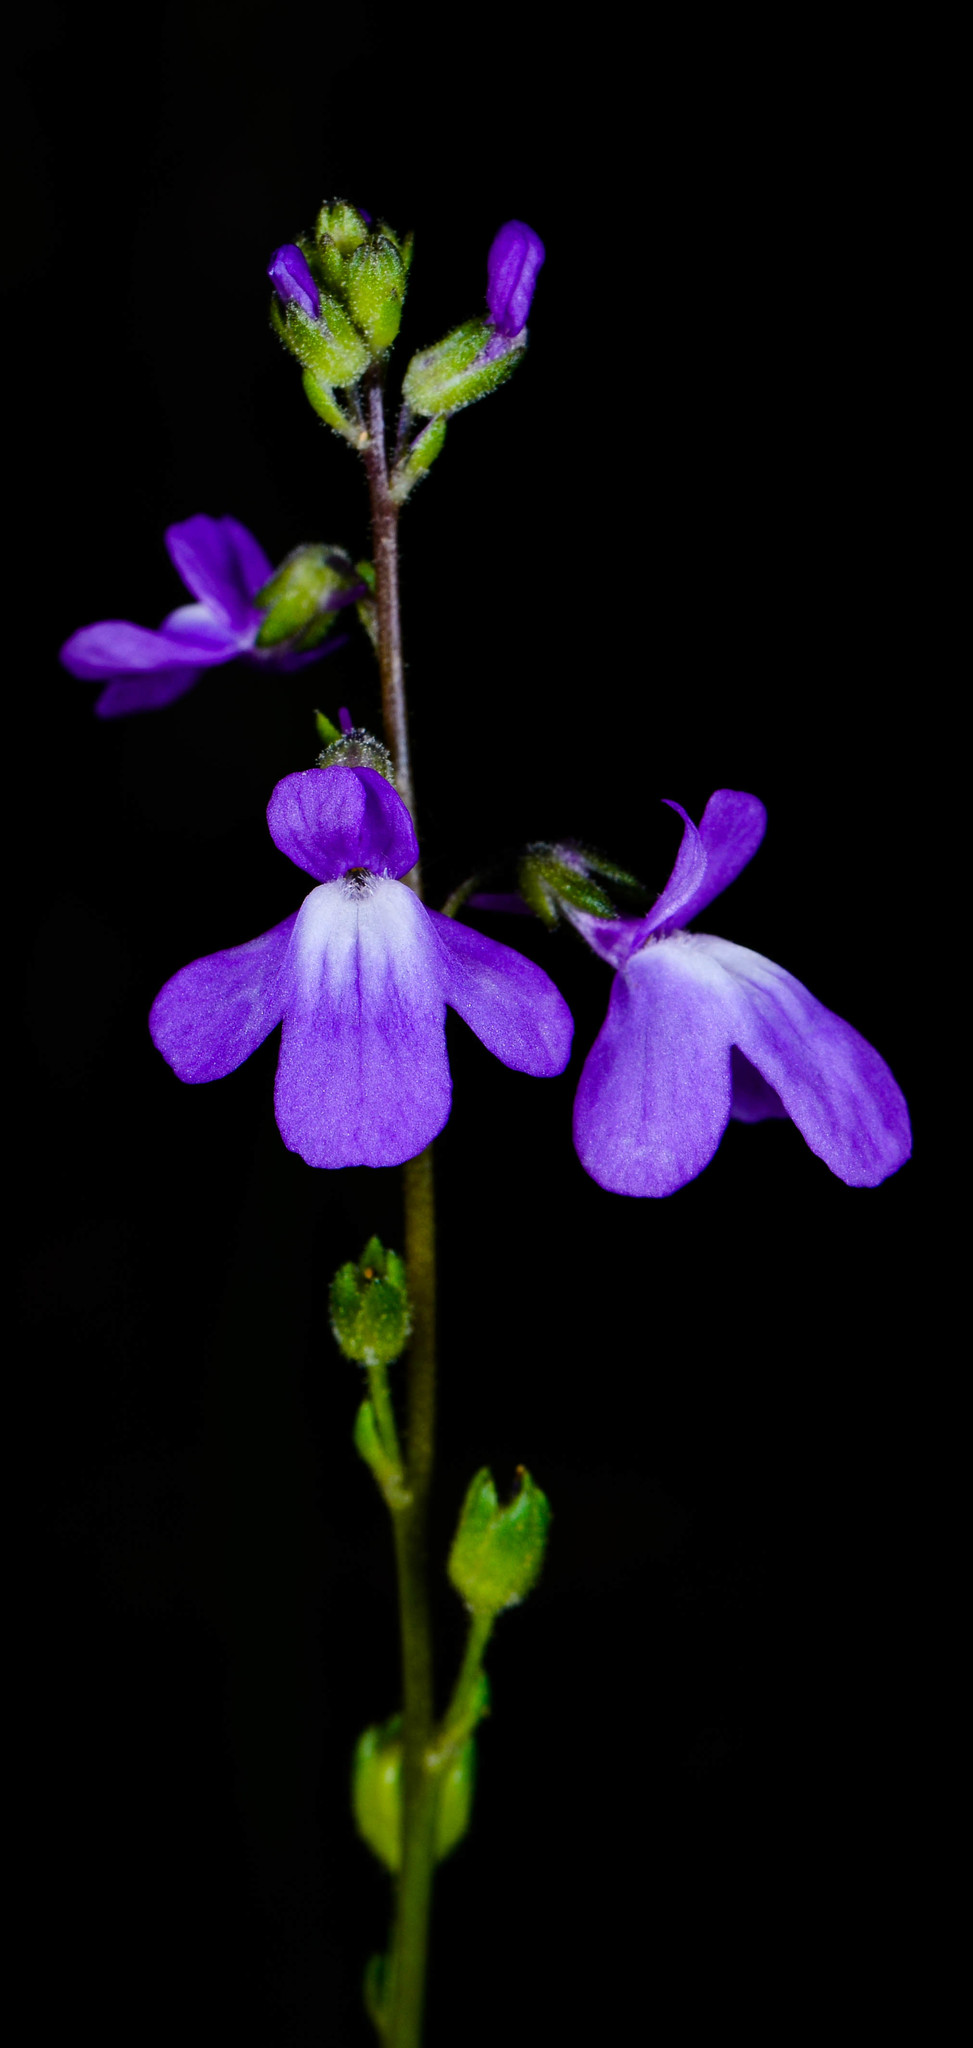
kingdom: Plantae
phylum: Tracheophyta
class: Magnoliopsida
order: Lamiales
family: Plantaginaceae
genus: Nuttallanthus
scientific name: Nuttallanthus canadensis
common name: Blue toadflax
